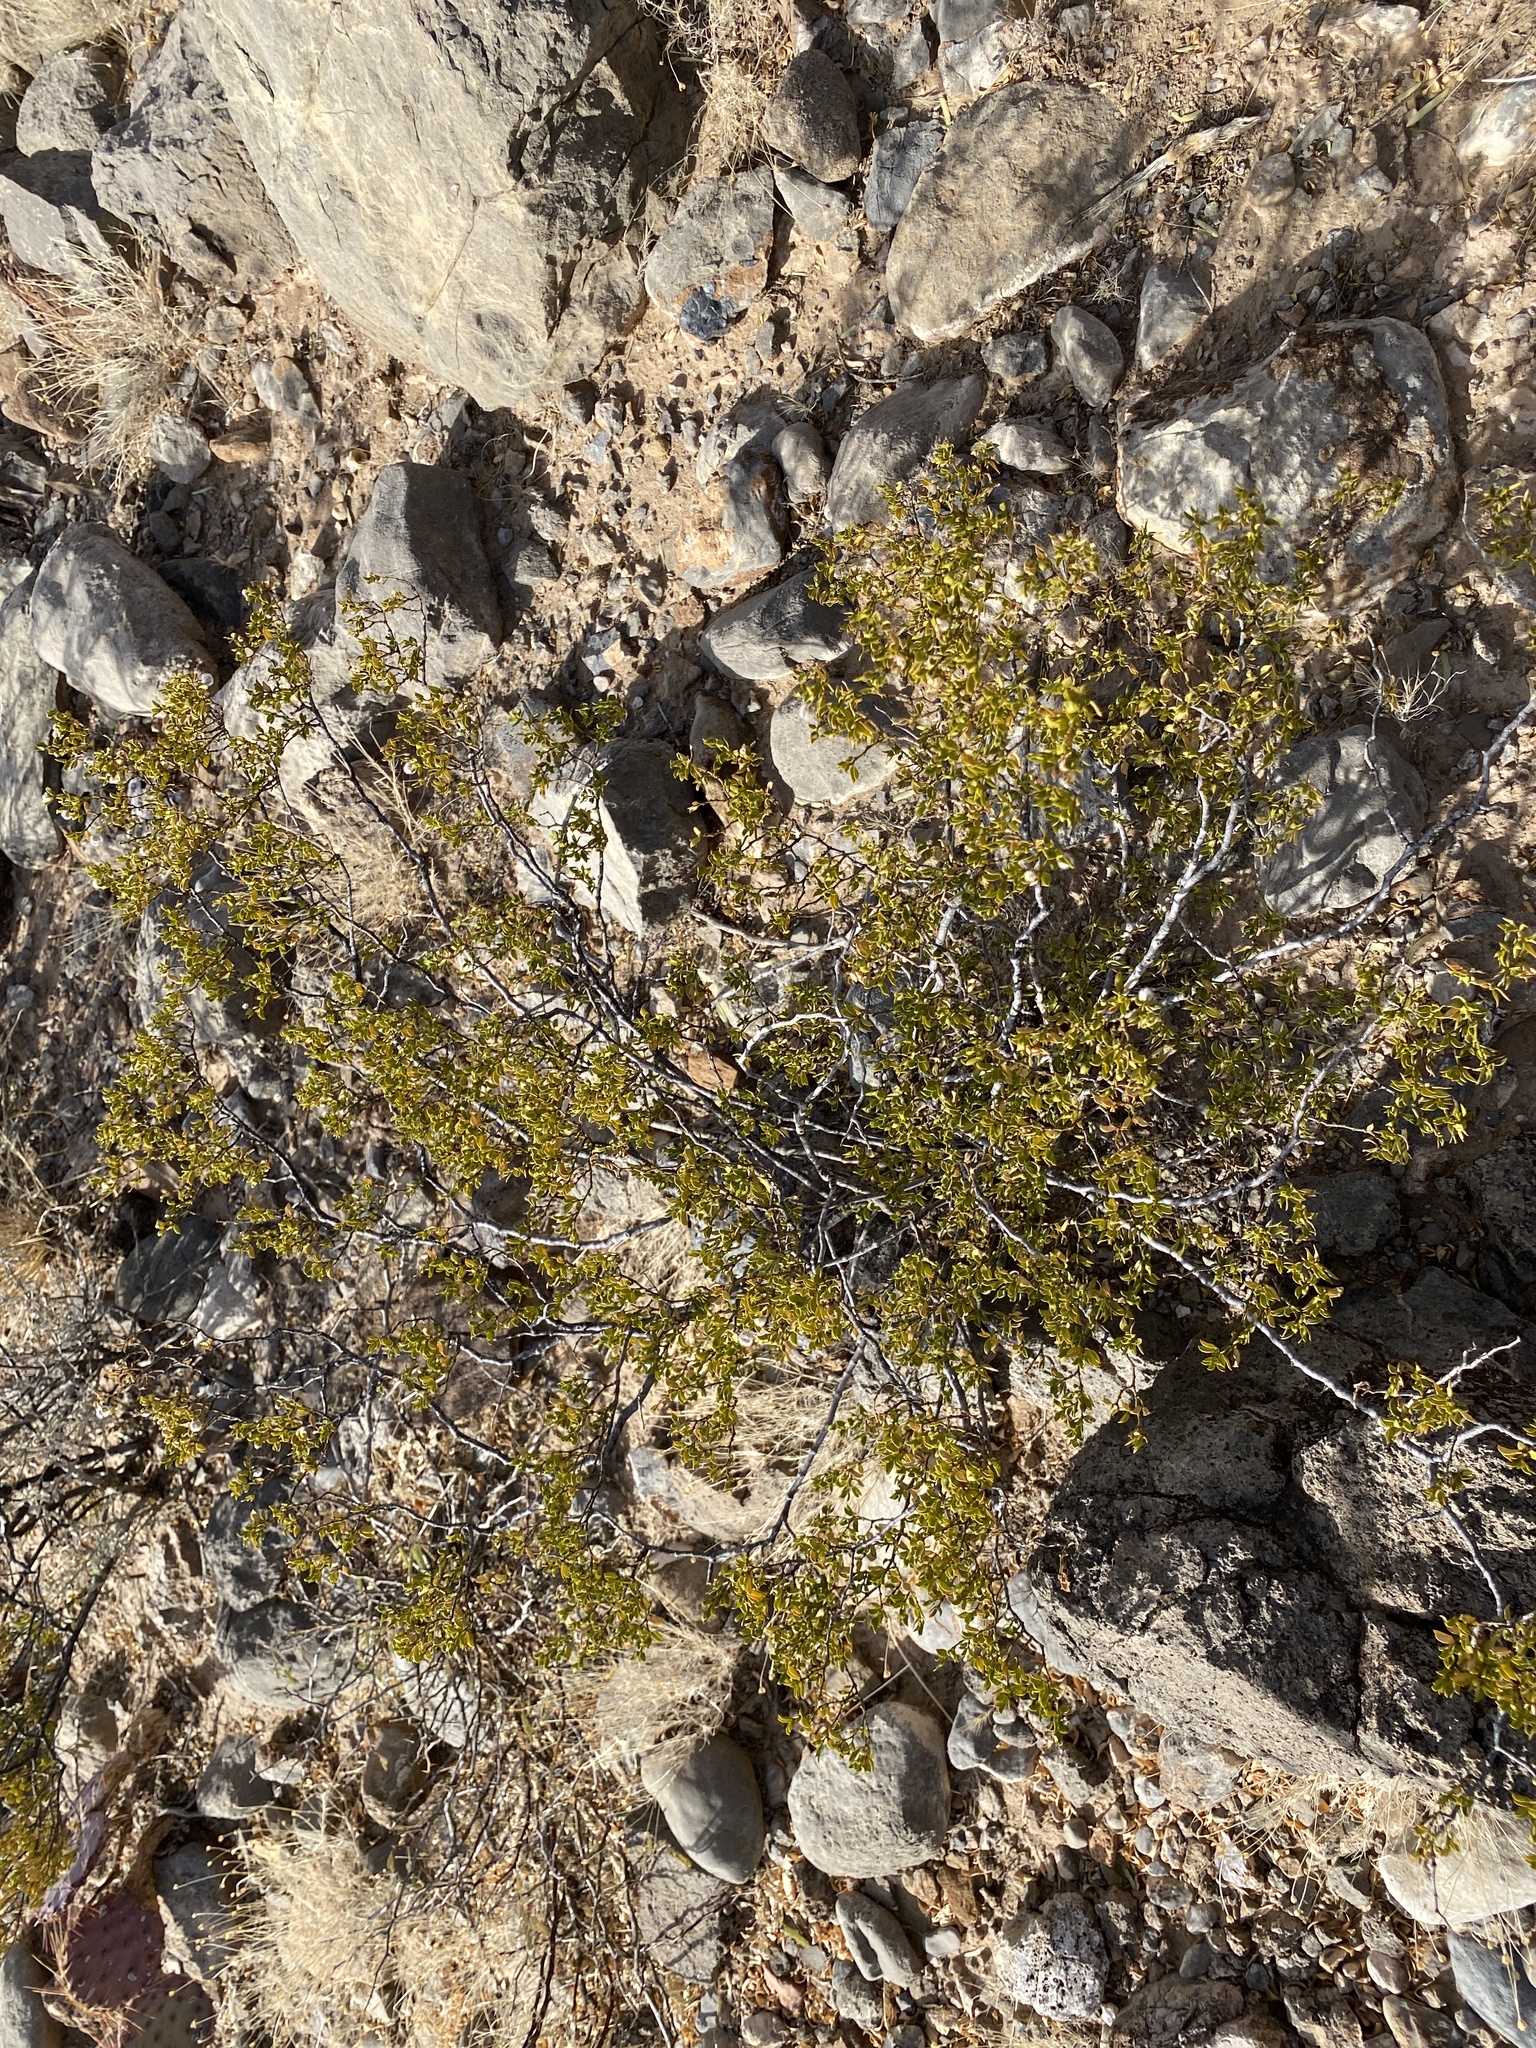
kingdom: Plantae
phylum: Tracheophyta
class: Magnoliopsida
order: Zygophyllales
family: Zygophyllaceae
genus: Larrea
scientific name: Larrea tridentata
